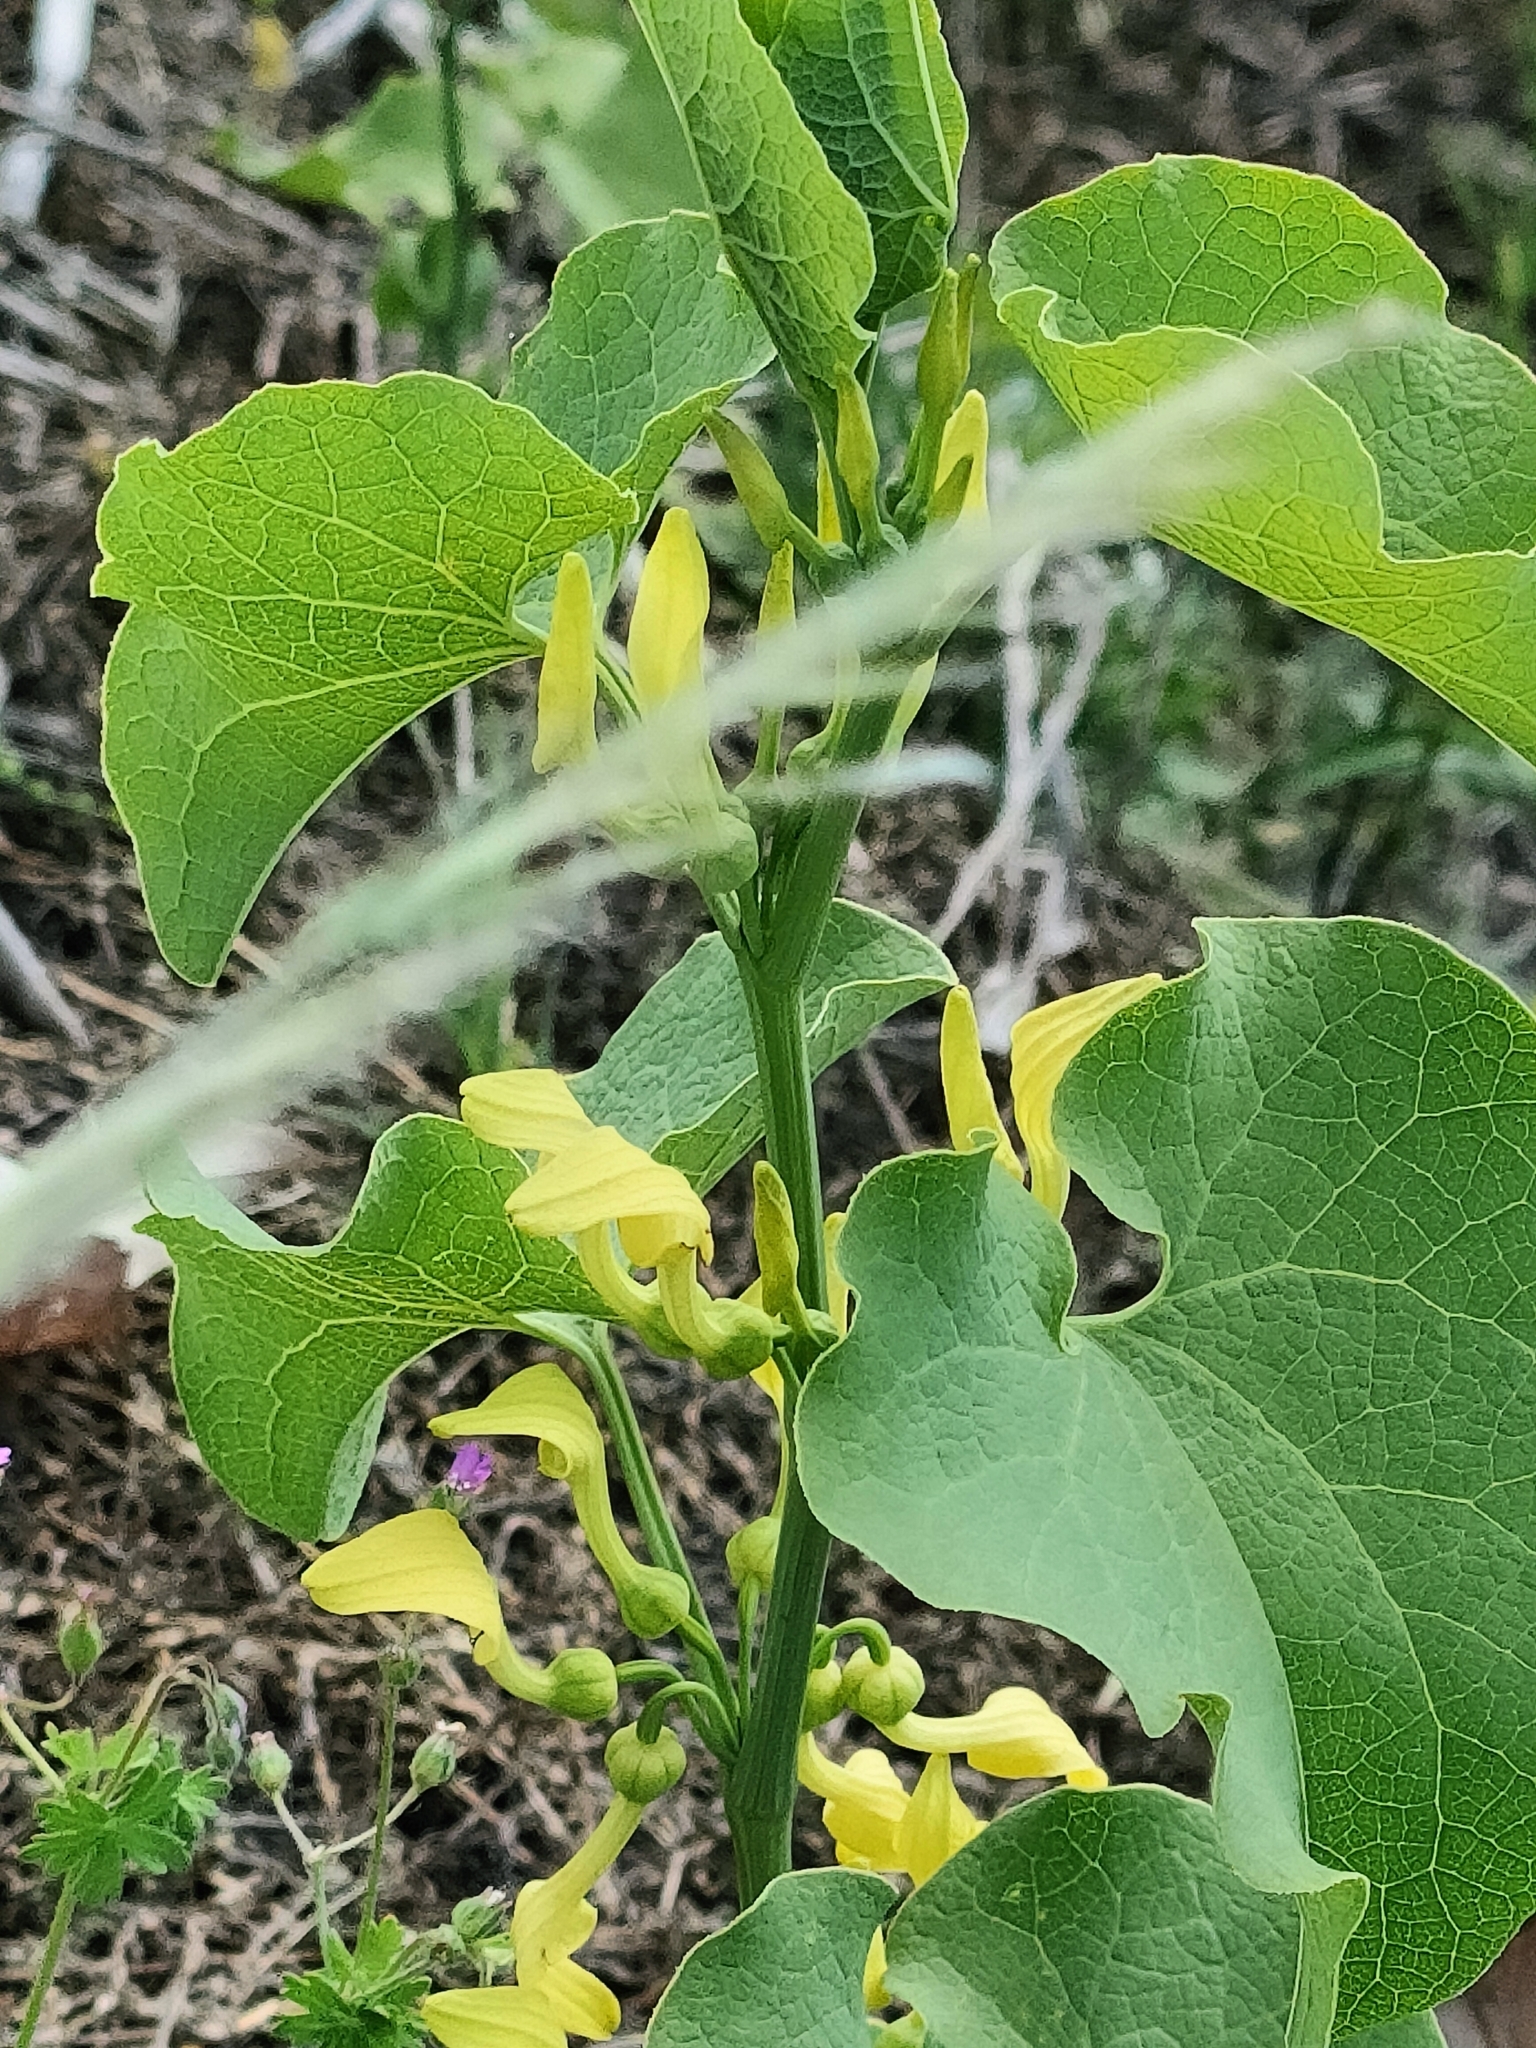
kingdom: Plantae
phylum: Tracheophyta
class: Magnoliopsida
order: Piperales
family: Aristolochiaceae
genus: Aristolochia
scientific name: Aristolochia clematitis
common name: Birthwort
